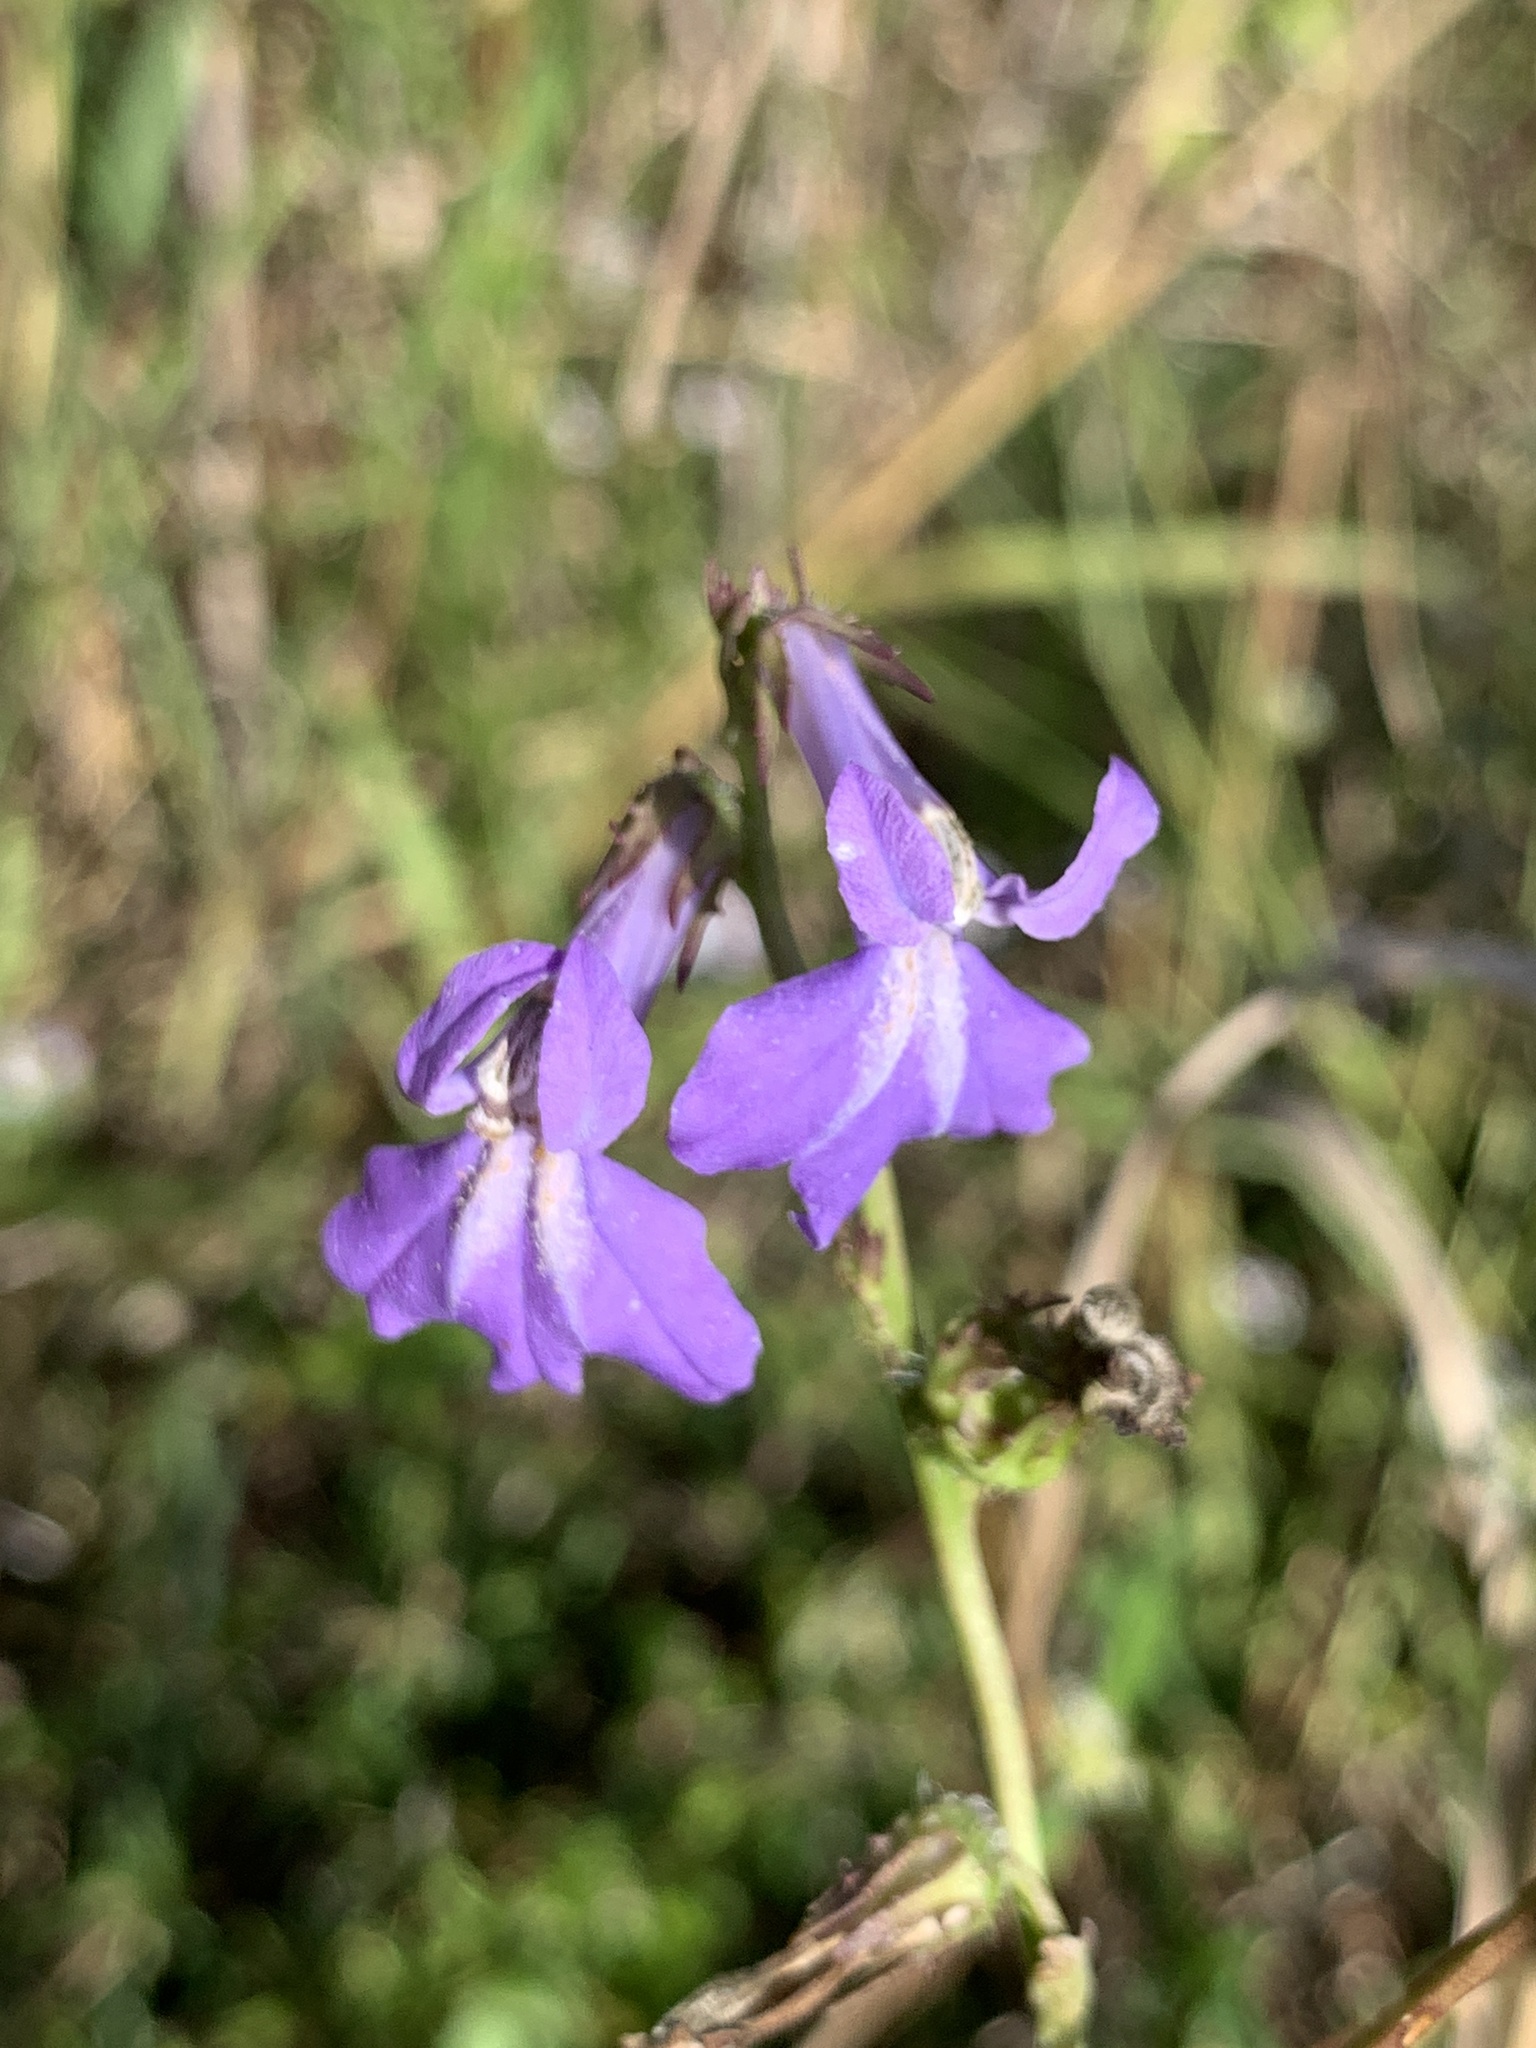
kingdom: Plantae
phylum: Tracheophyta
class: Magnoliopsida
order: Asterales
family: Campanulaceae
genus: Lobelia
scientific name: Lobelia glandulosa
